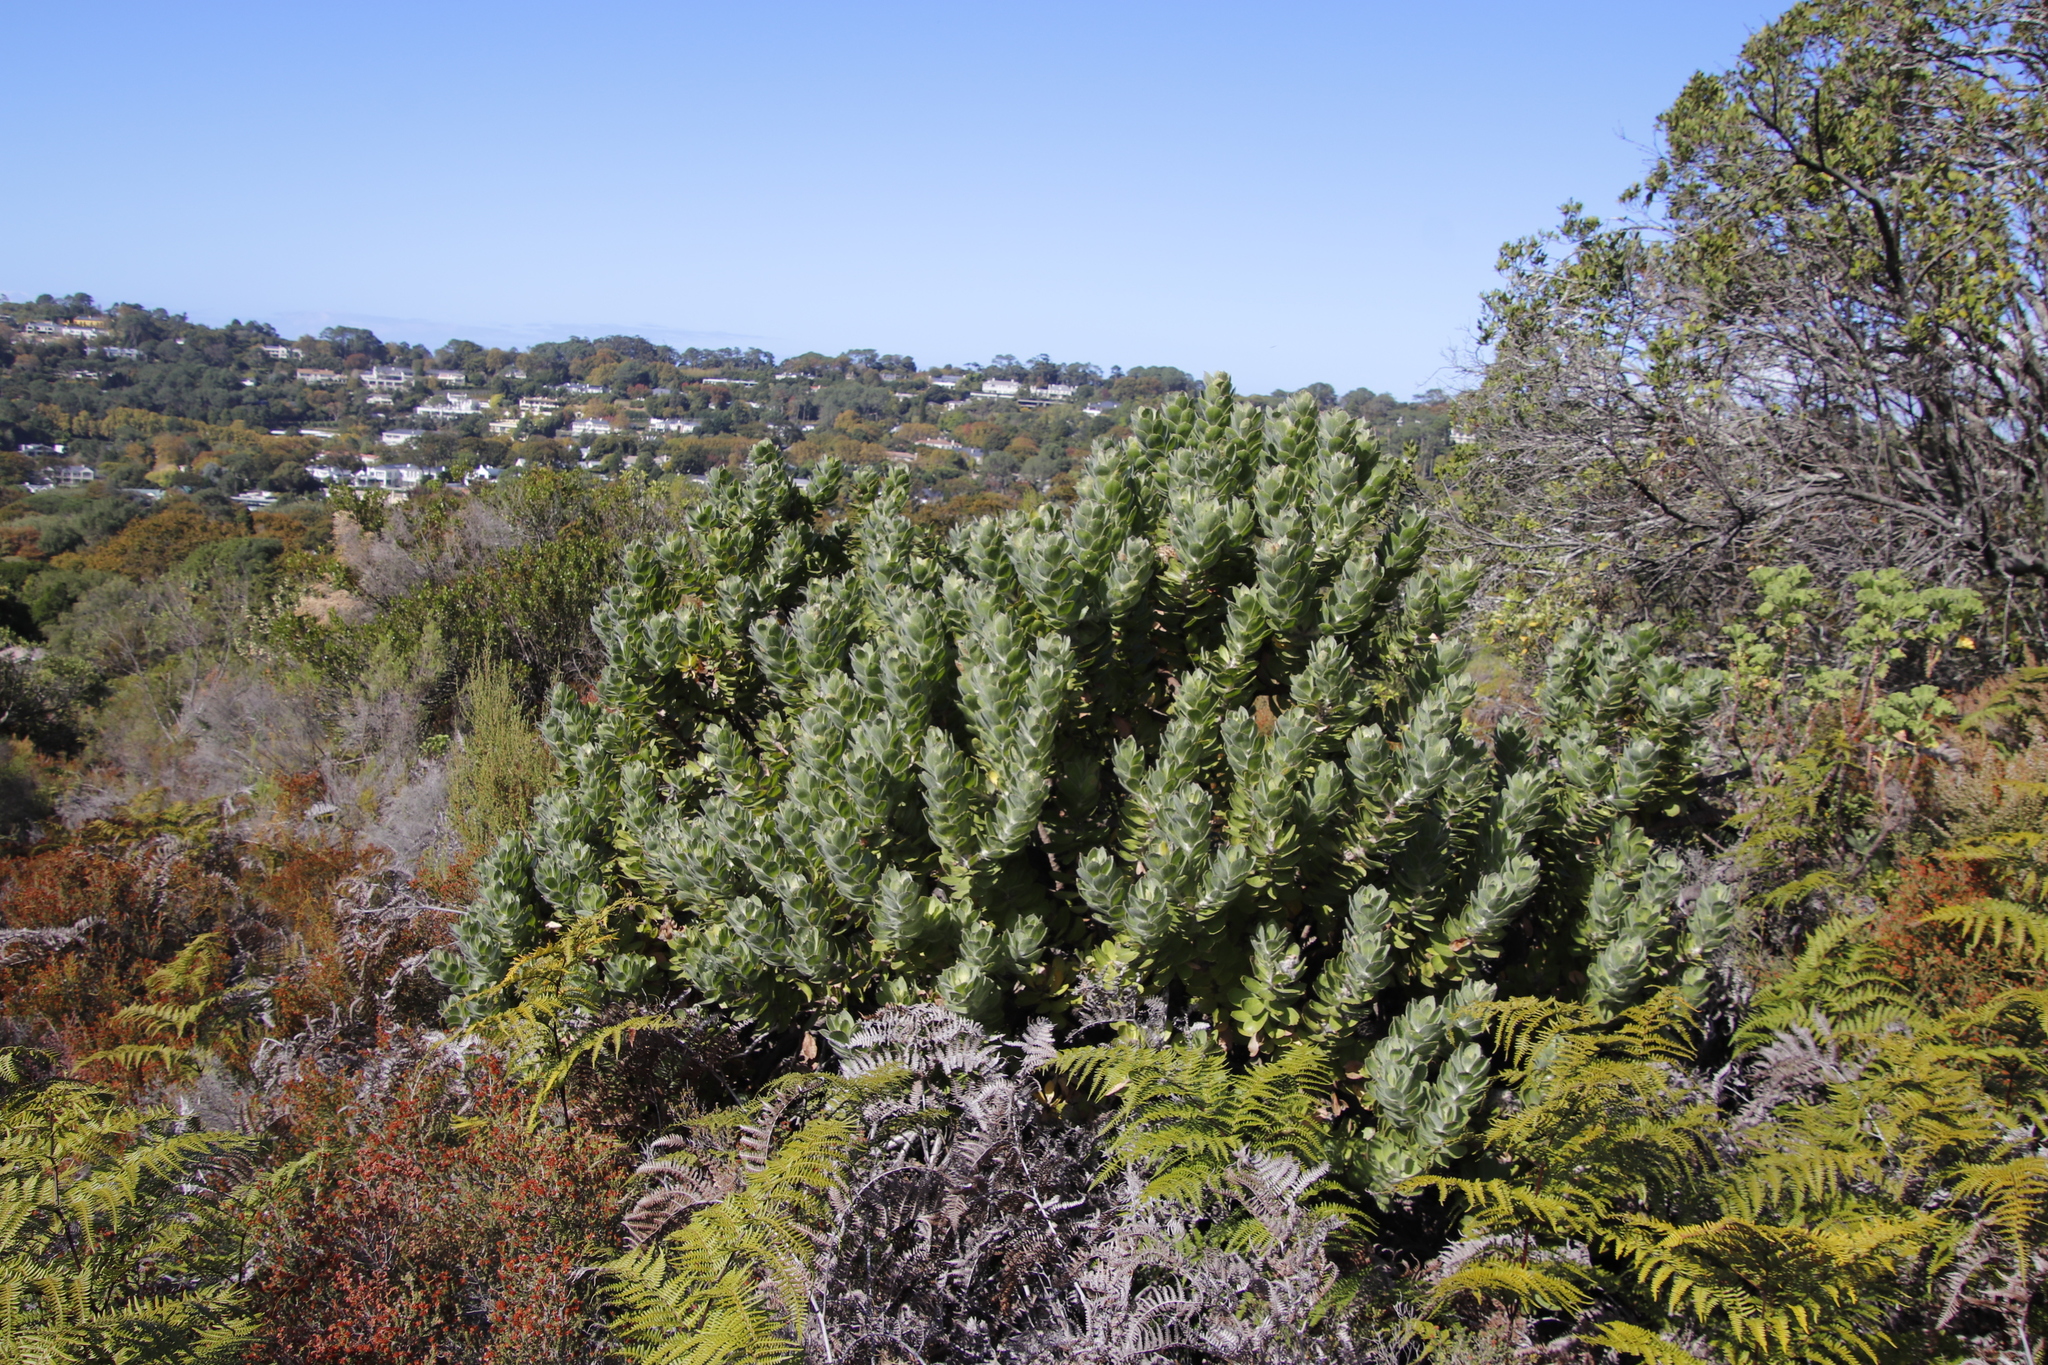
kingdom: Plantae
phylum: Tracheophyta
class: Magnoliopsida
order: Proteales
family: Proteaceae
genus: Leucospermum
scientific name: Leucospermum conocarpodendron
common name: Tree pincushion
